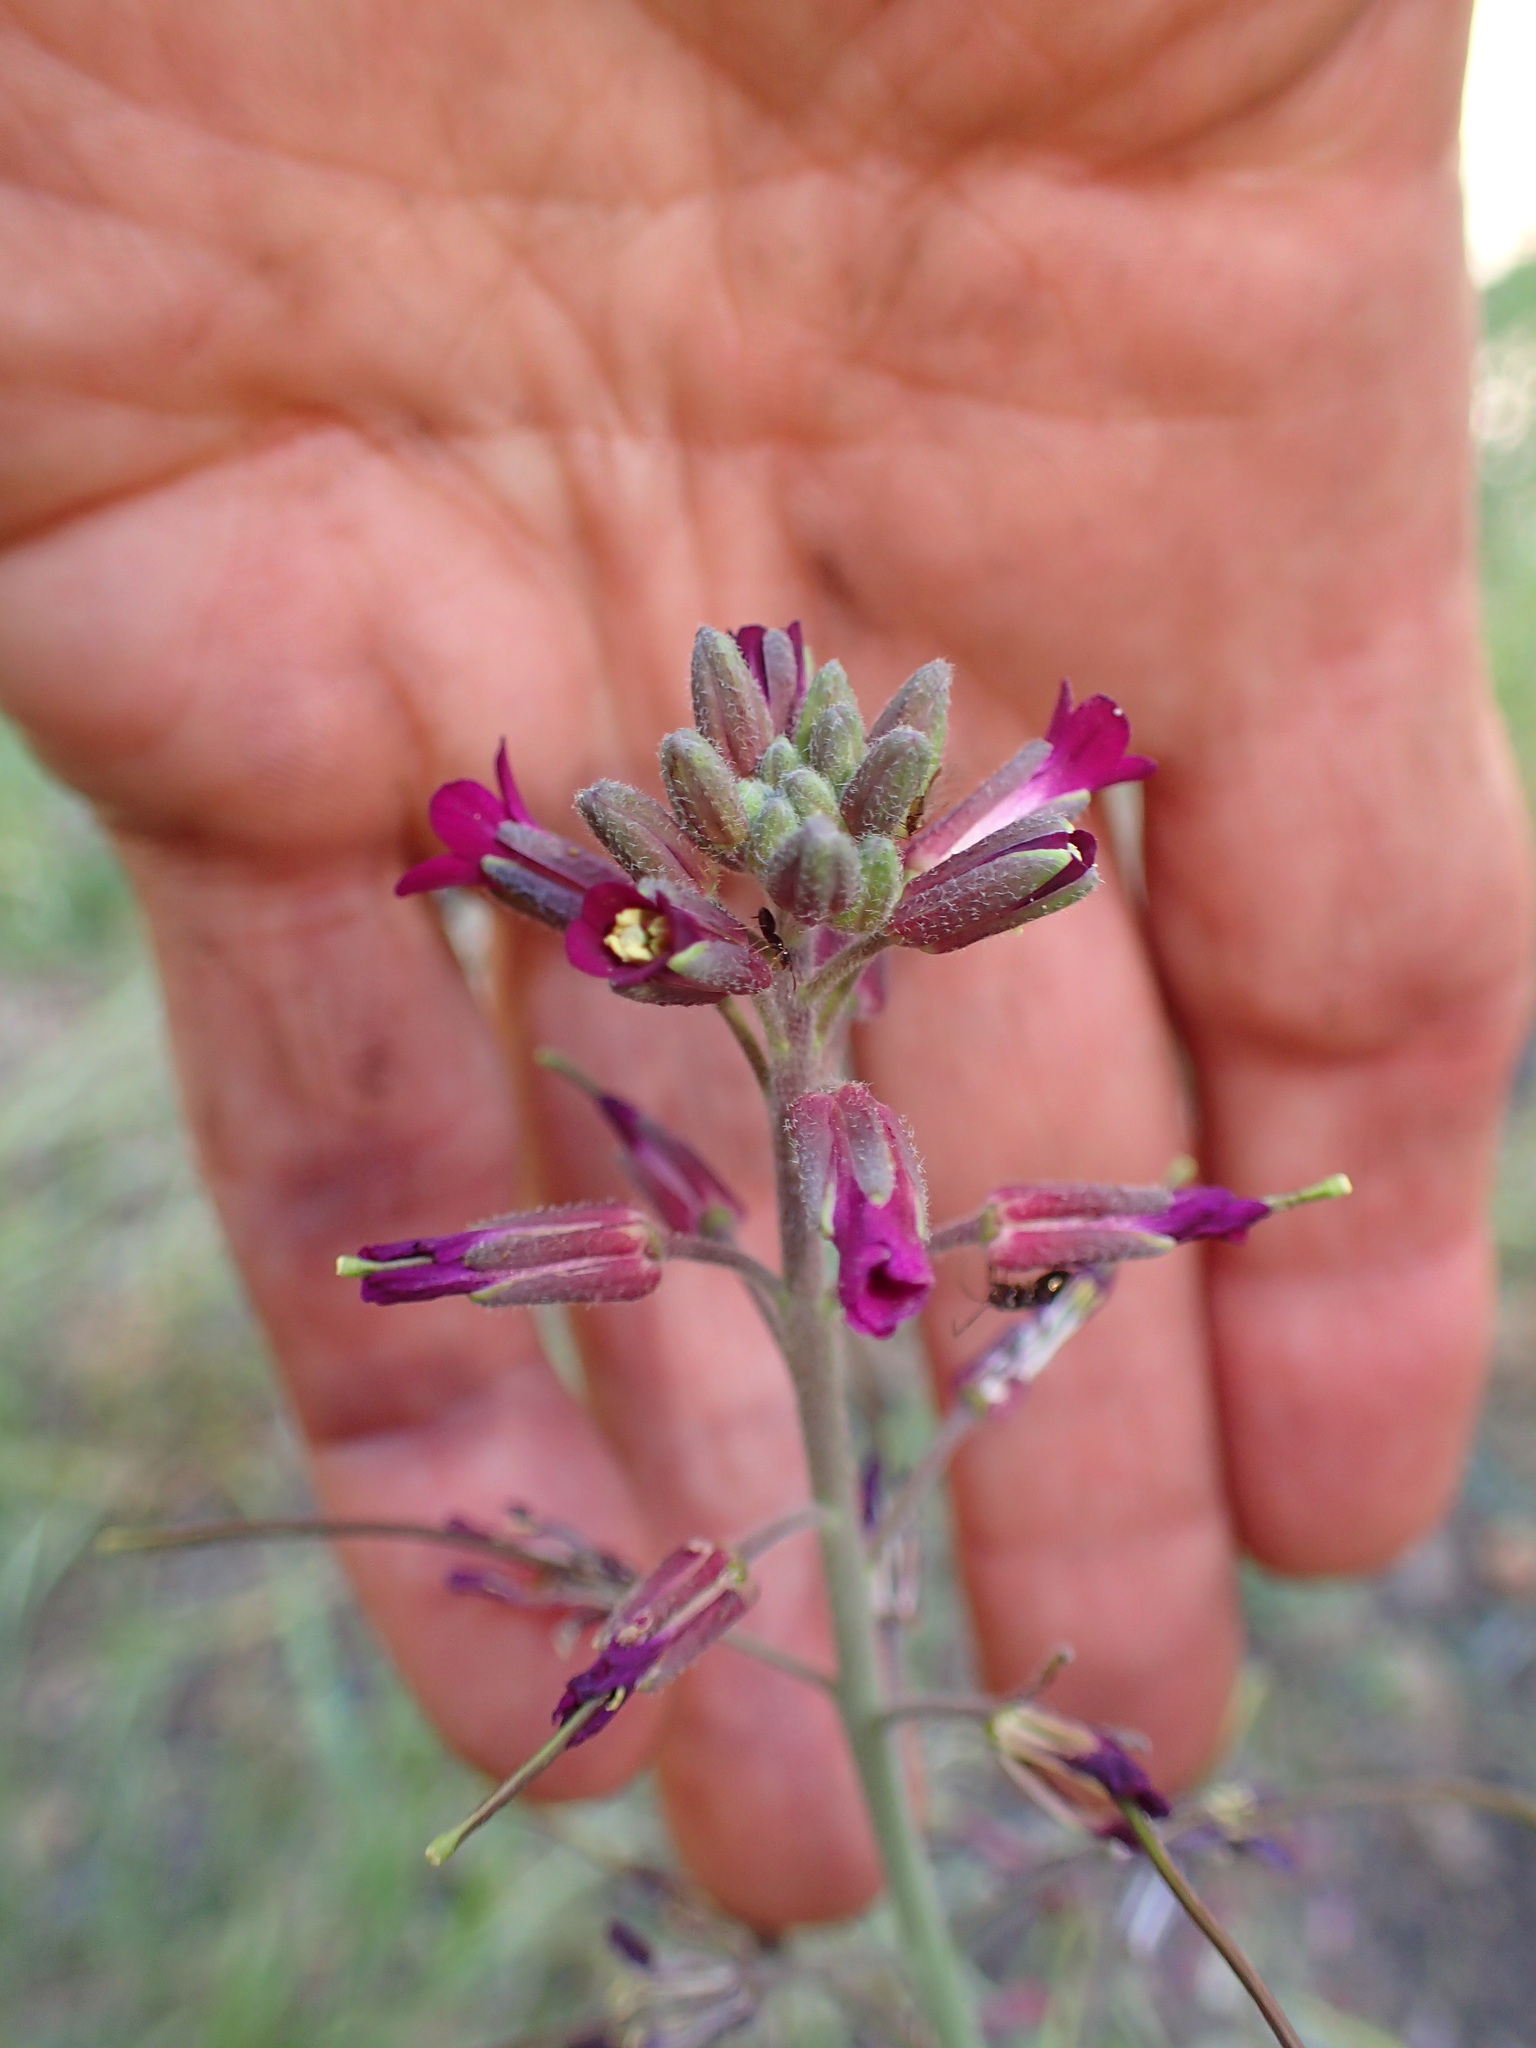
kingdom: Plantae
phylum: Tracheophyta
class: Magnoliopsida
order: Brassicales
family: Brassicaceae
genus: Boechera
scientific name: Boechera arcuata
